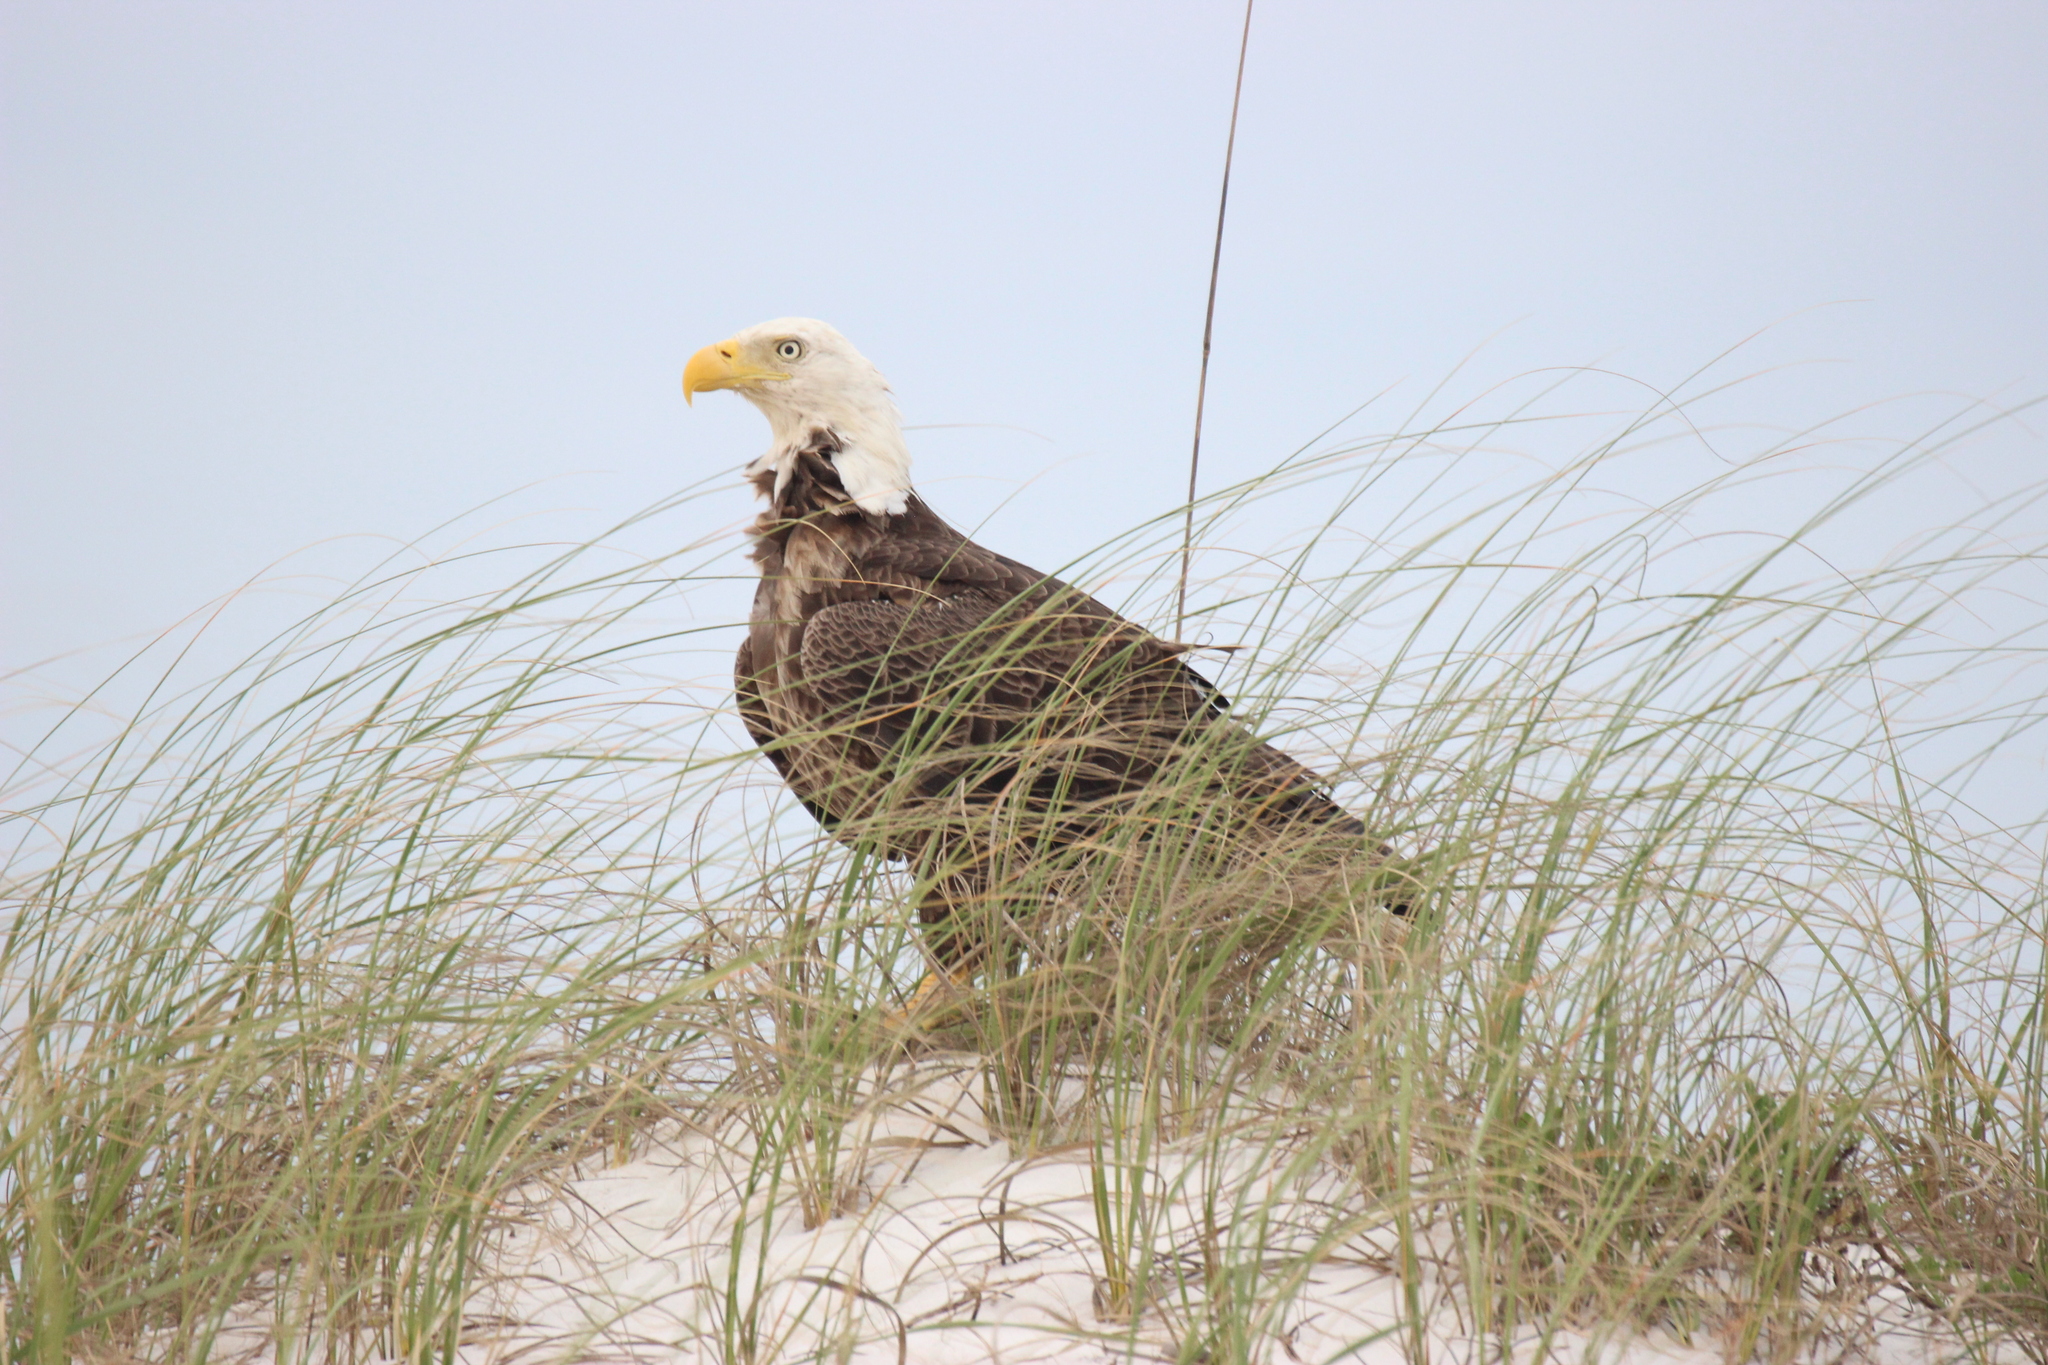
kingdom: Animalia
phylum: Chordata
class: Aves
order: Accipitriformes
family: Accipitridae
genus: Haliaeetus
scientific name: Haliaeetus leucocephalus
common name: Bald eagle
